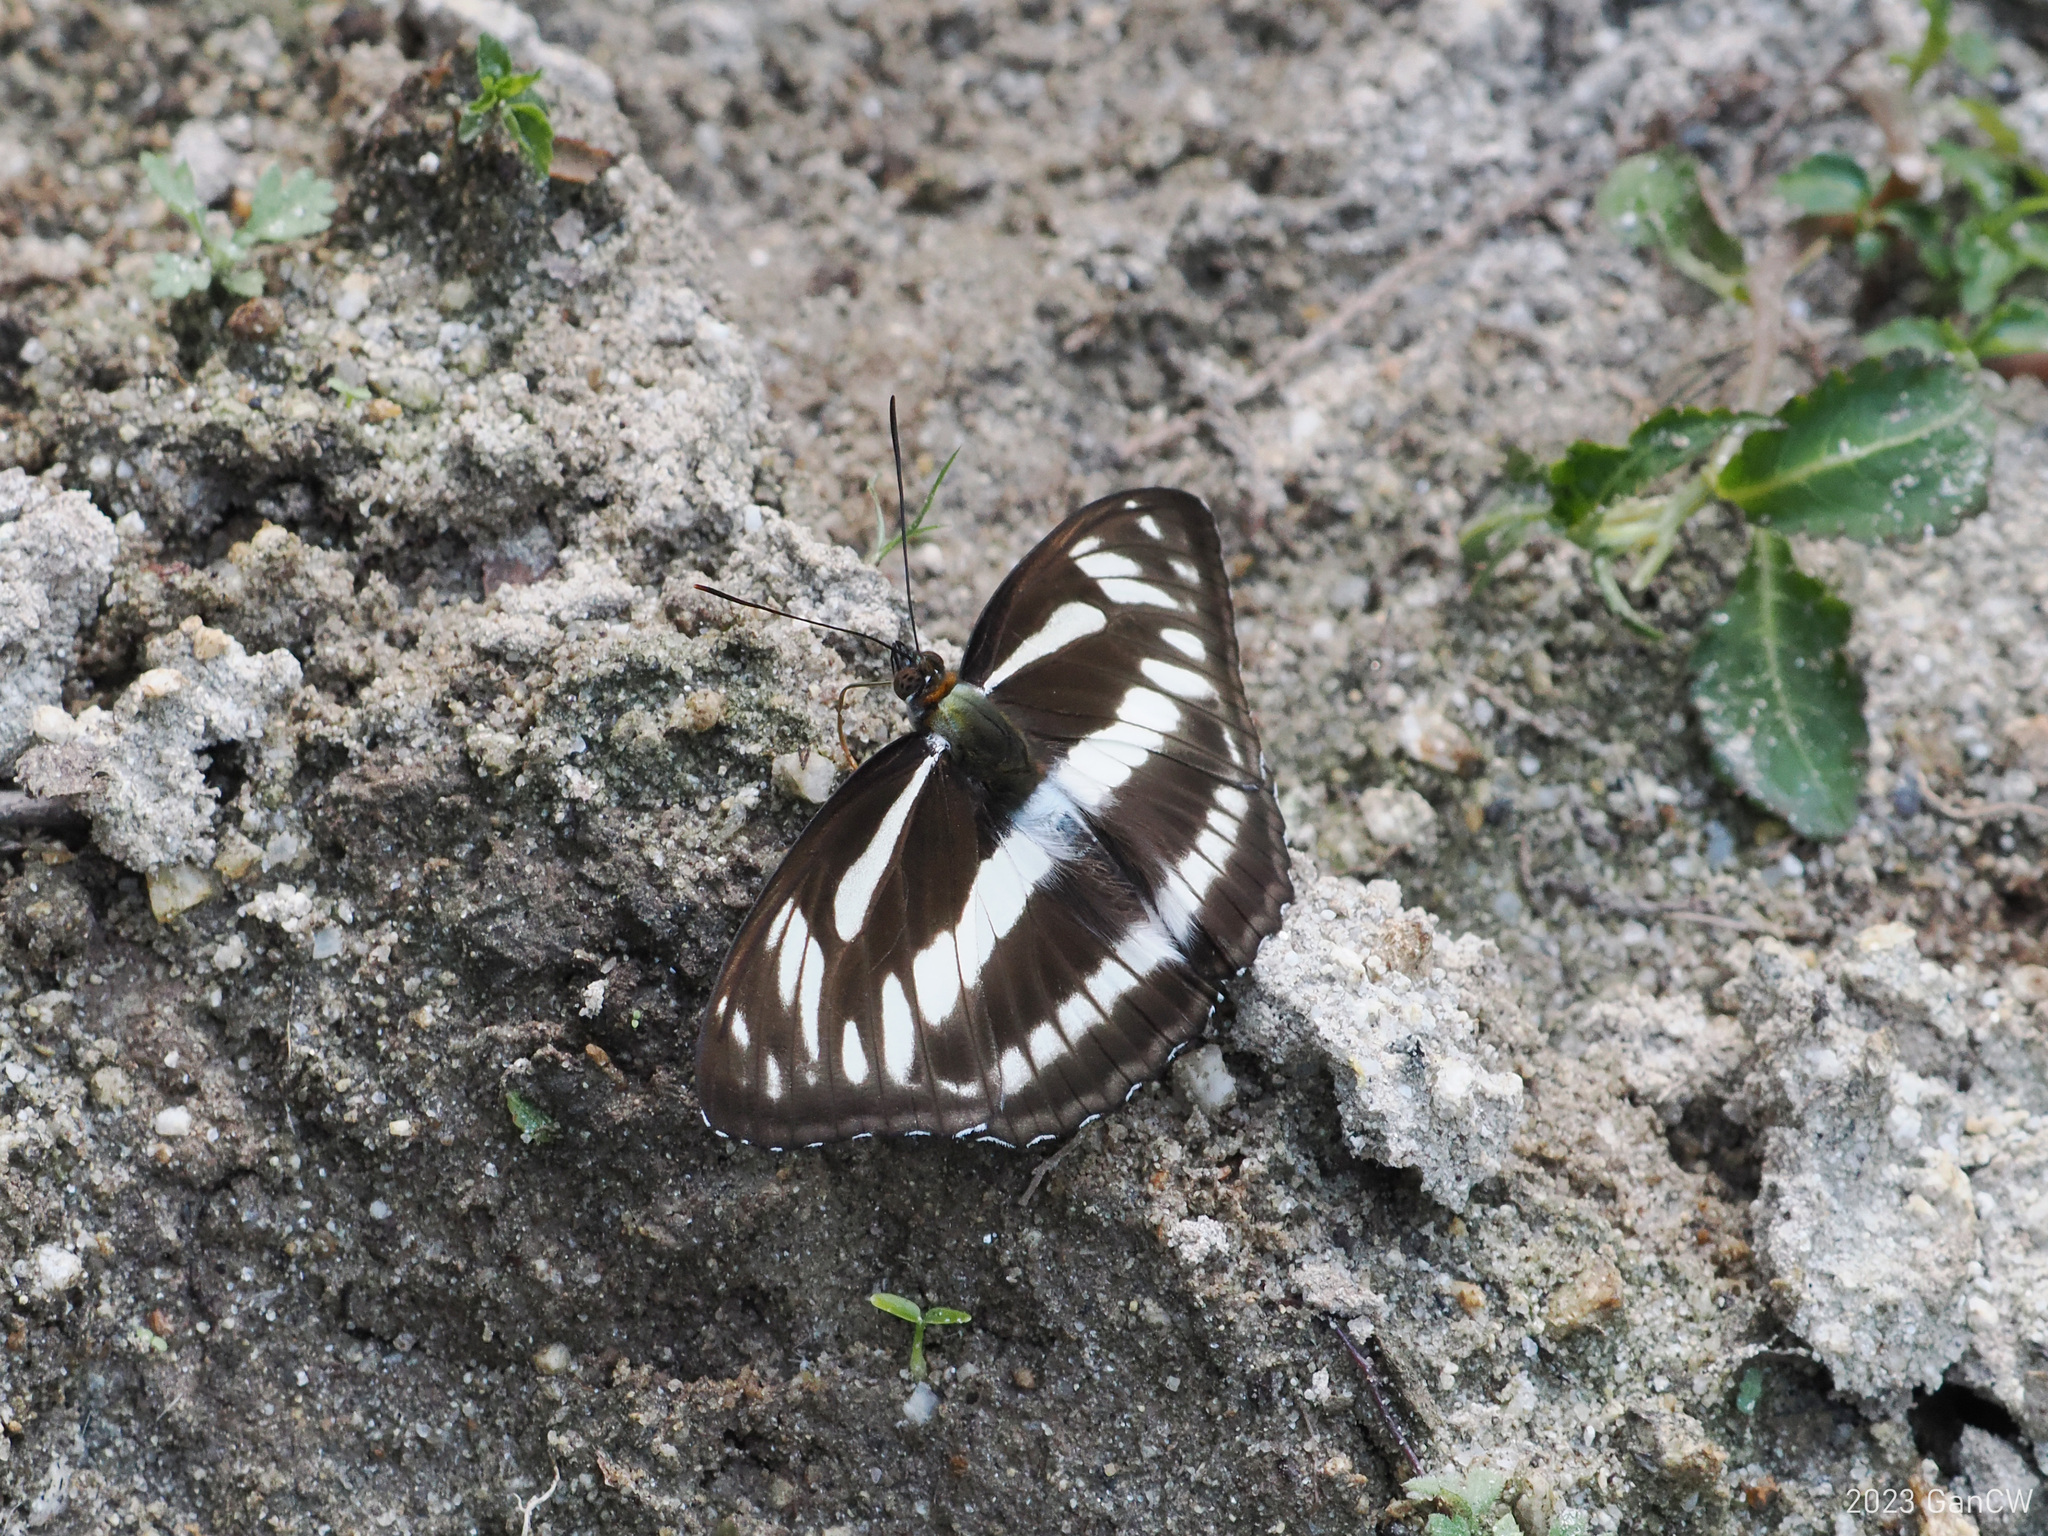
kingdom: Animalia
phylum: Arthropoda
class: Insecta
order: Lepidoptera
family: Nymphalidae
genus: Pantoporia
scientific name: Pantoporia jina
